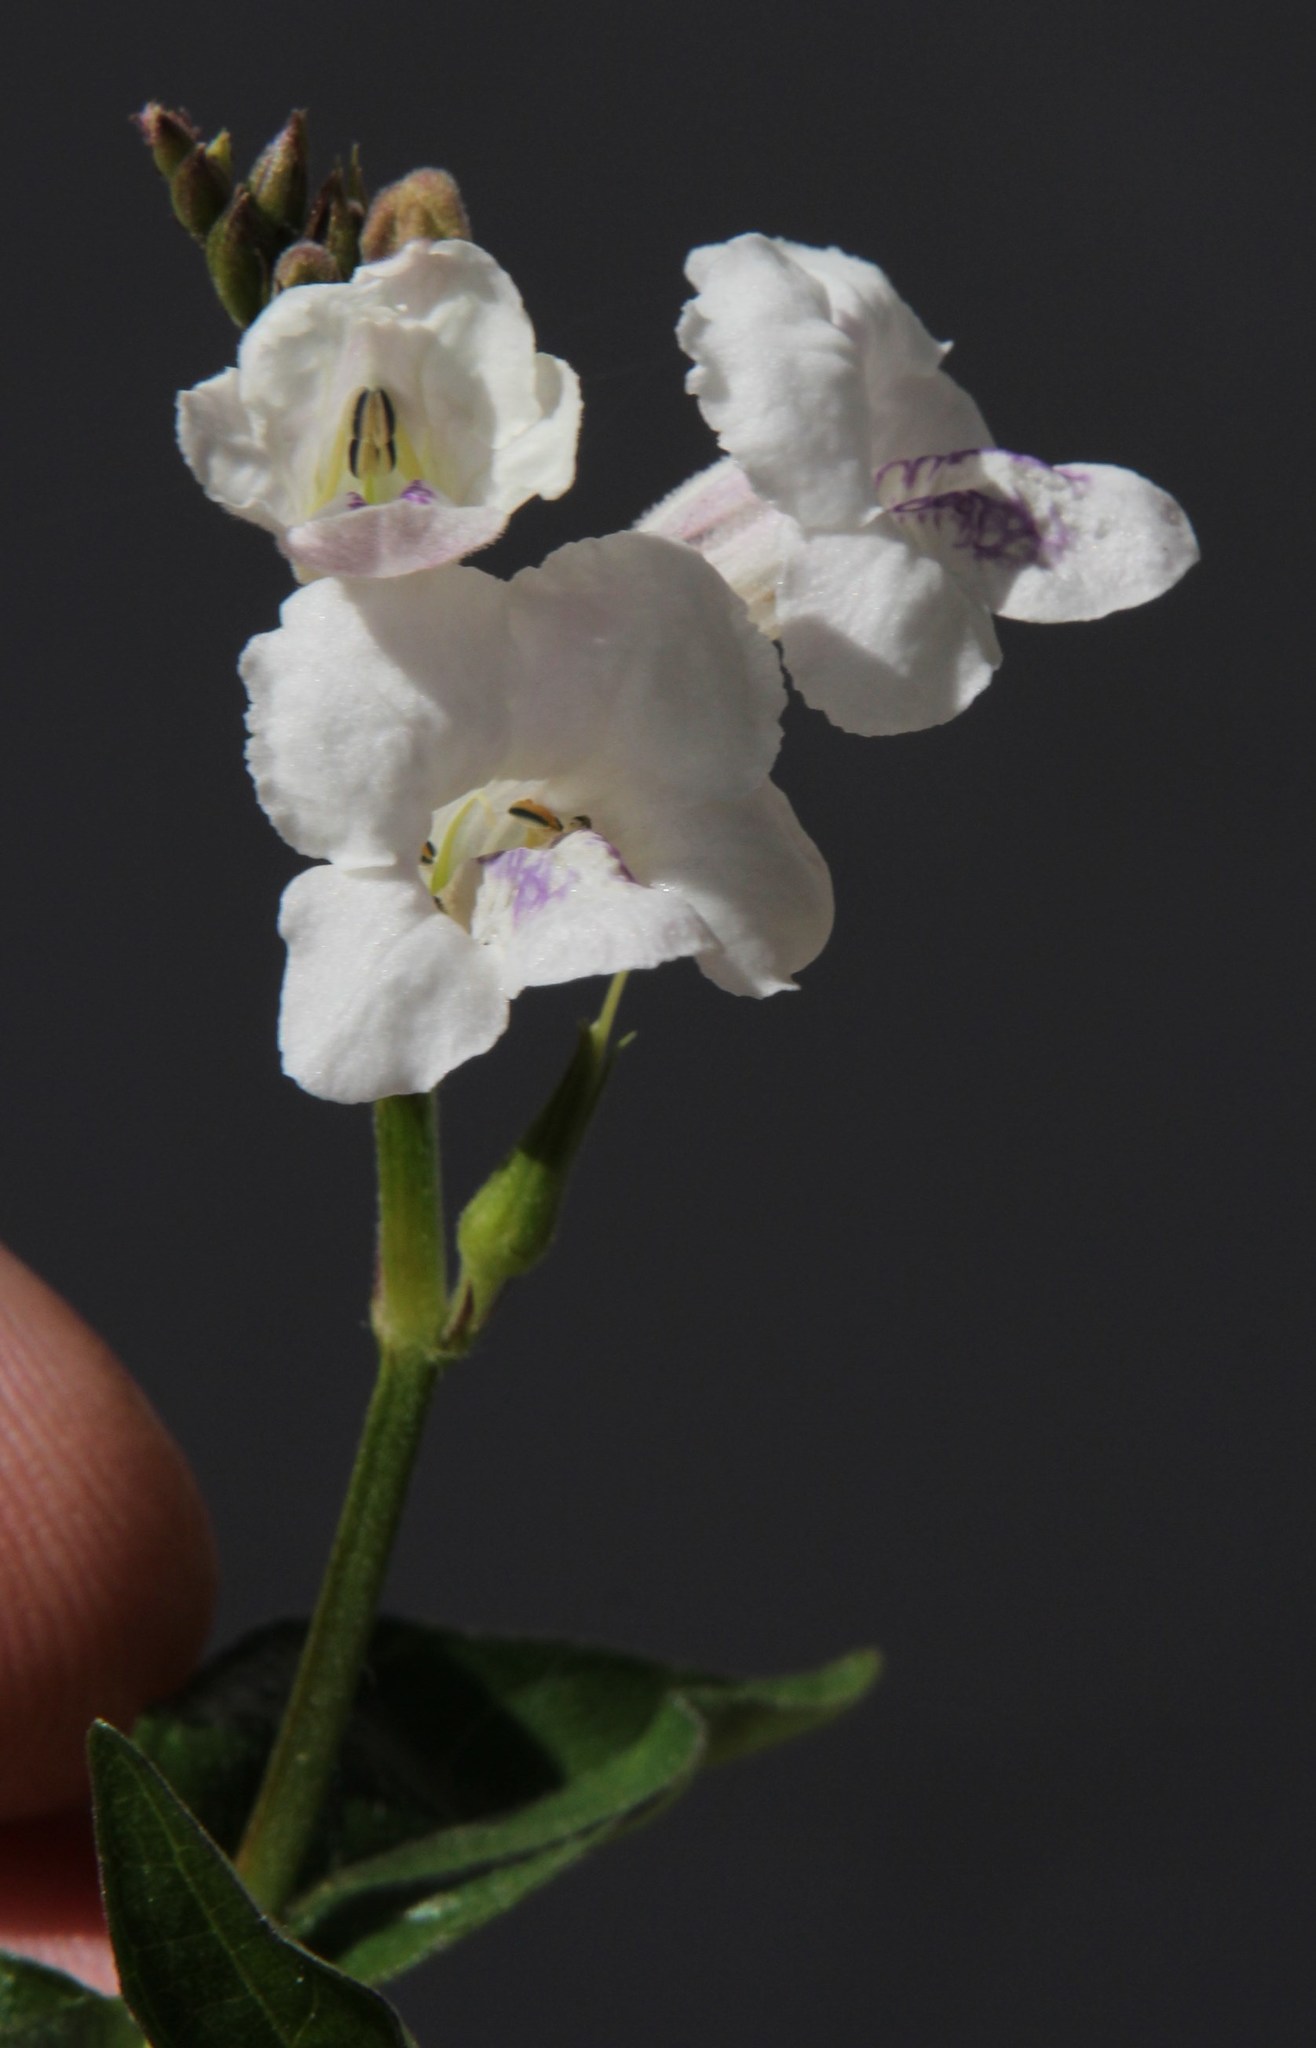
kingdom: Plantae
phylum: Tracheophyta
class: Magnoliopsida
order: Lamiales
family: Acanthaceae
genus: Asystasia
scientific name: Asystasia intrusa
